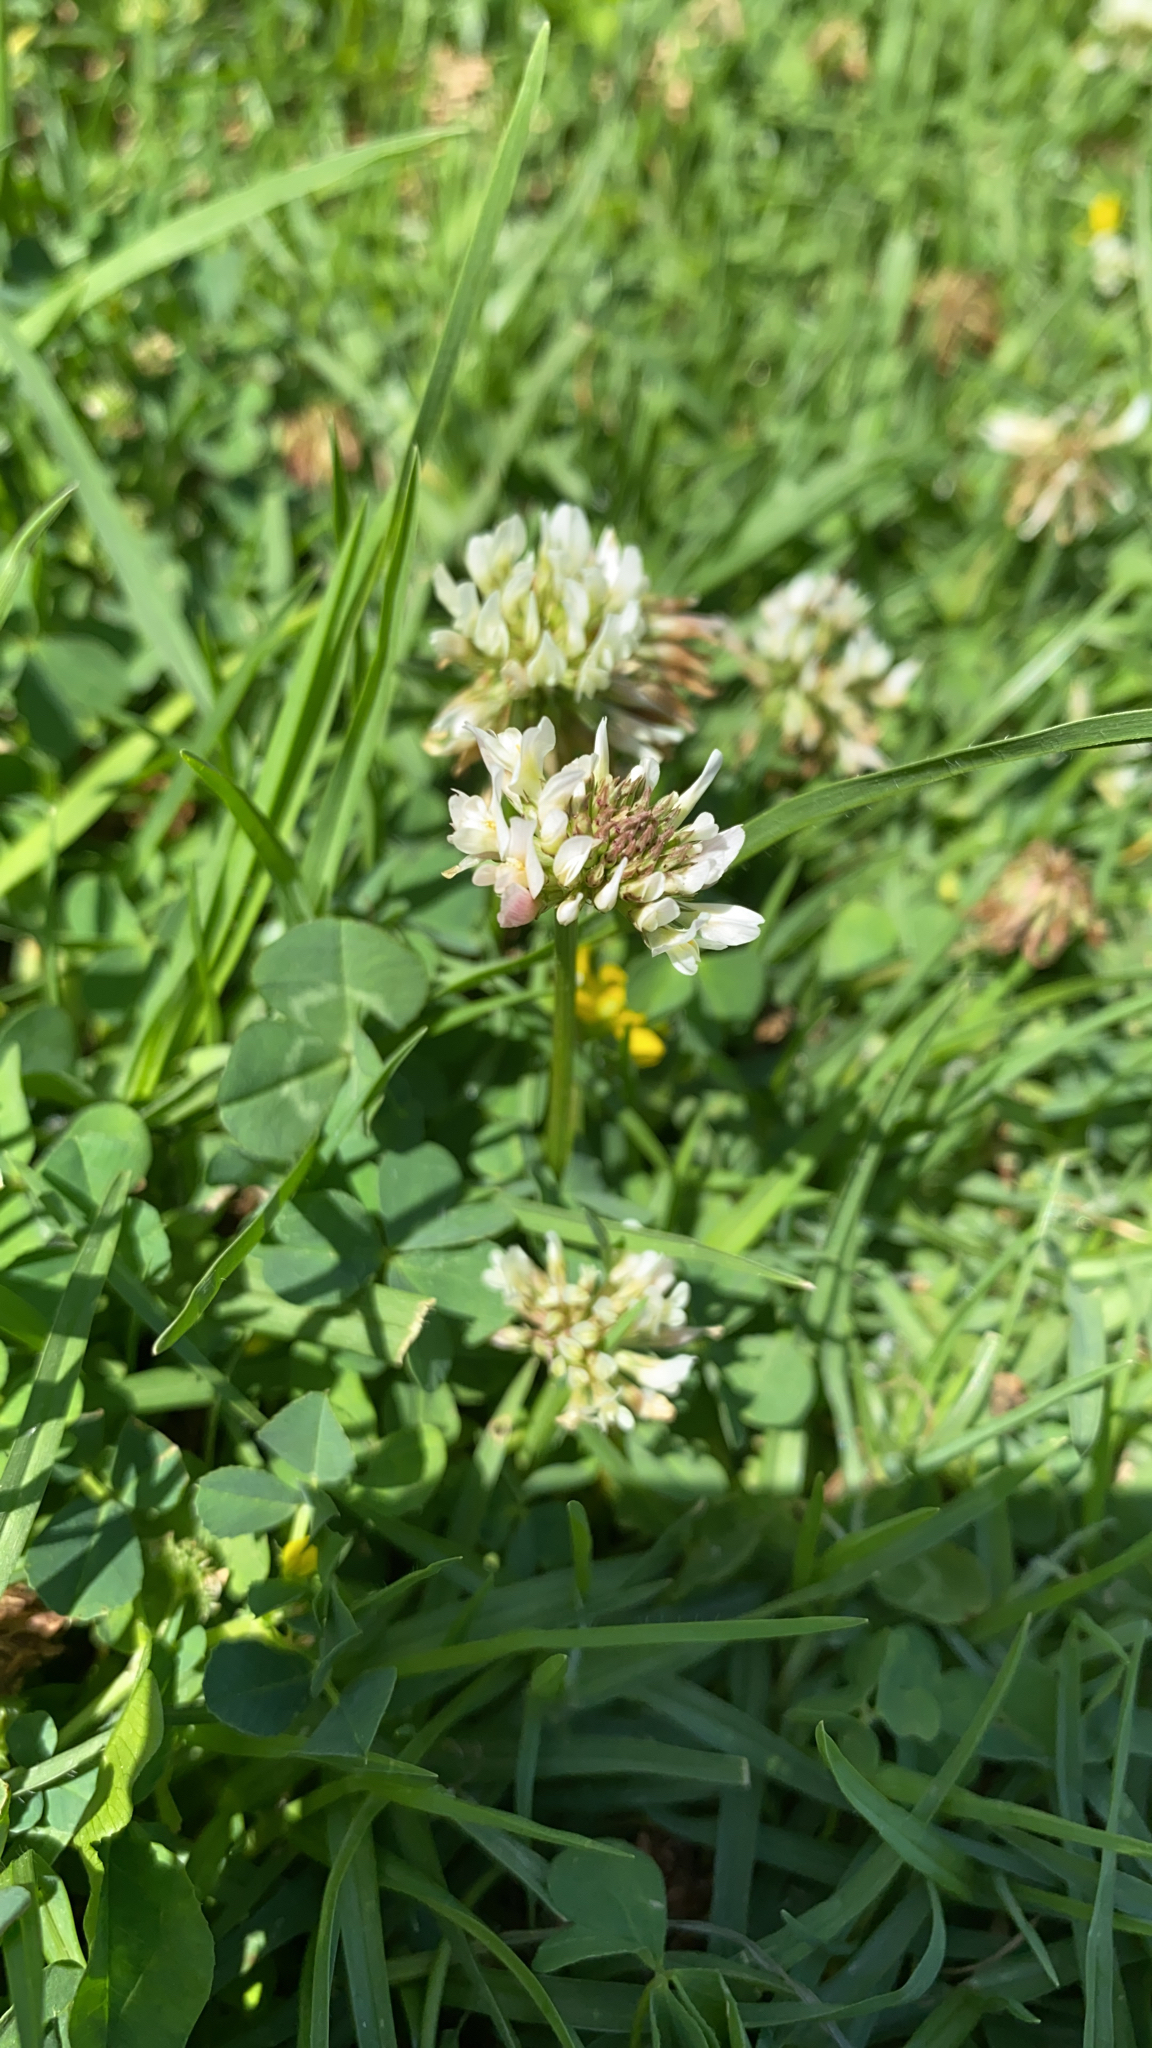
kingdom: Plantae
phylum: Tracheophyta
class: Magnoliopsida
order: Fabales
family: Fabaceae
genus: Trifolium
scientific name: Trifolium repens
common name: White clover
